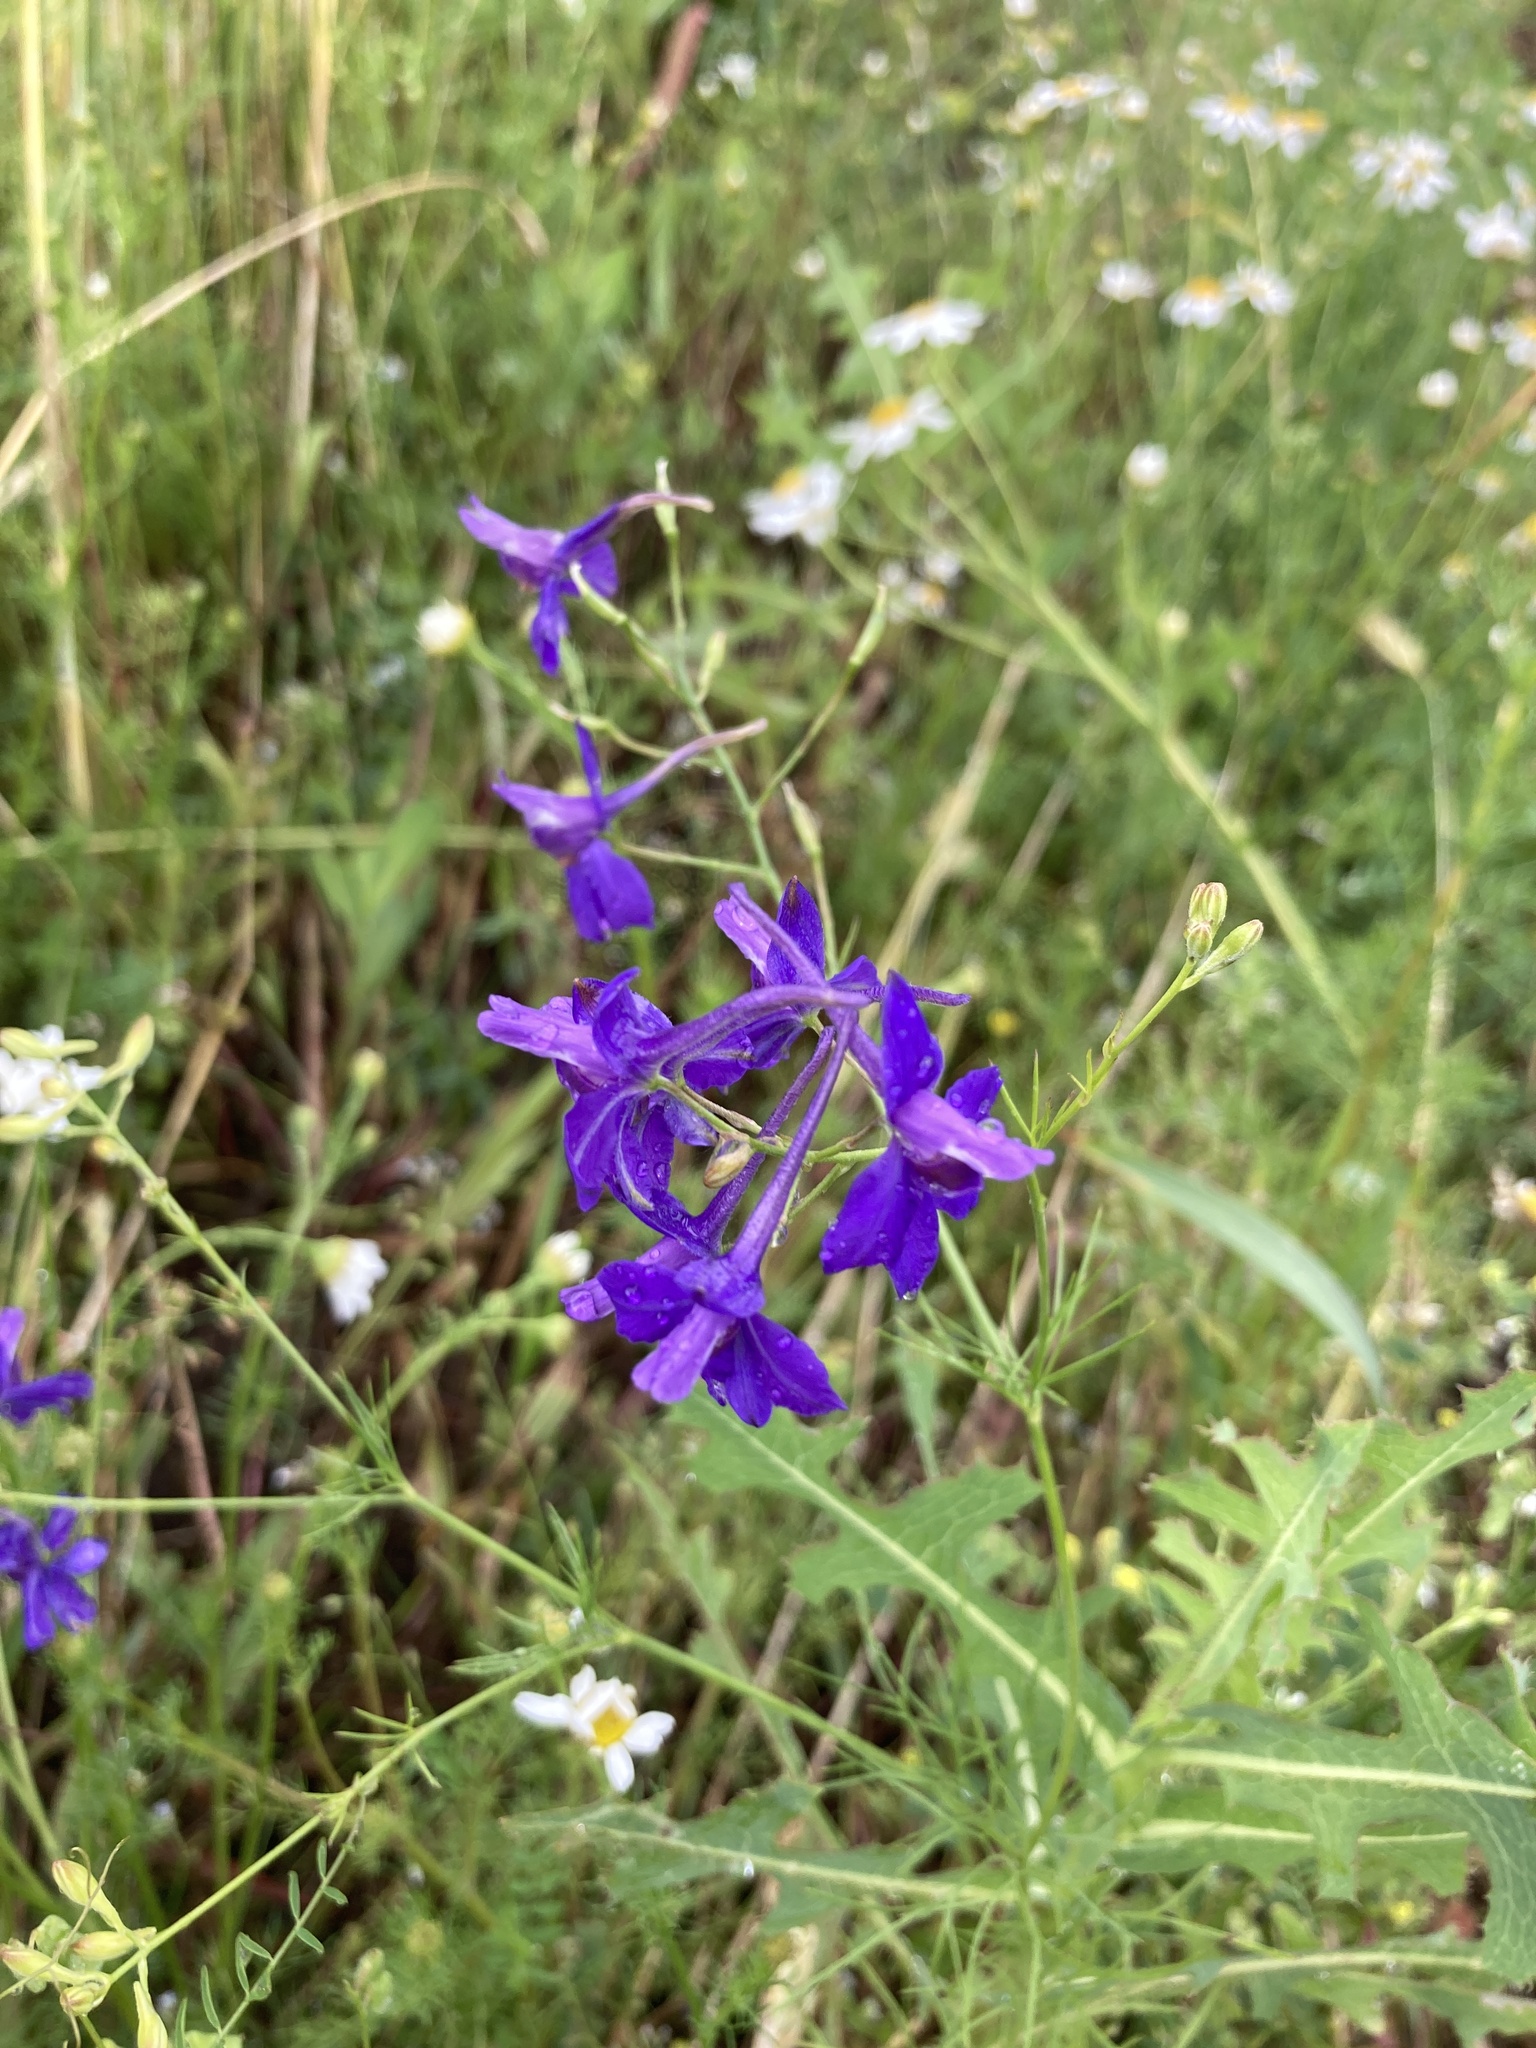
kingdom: Plantae
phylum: Tracheophyta
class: Magnoliopsida
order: Ranunculales
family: Ranunculaceae
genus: Delphinium
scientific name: Delphinium consolida
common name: Branching larkspur
